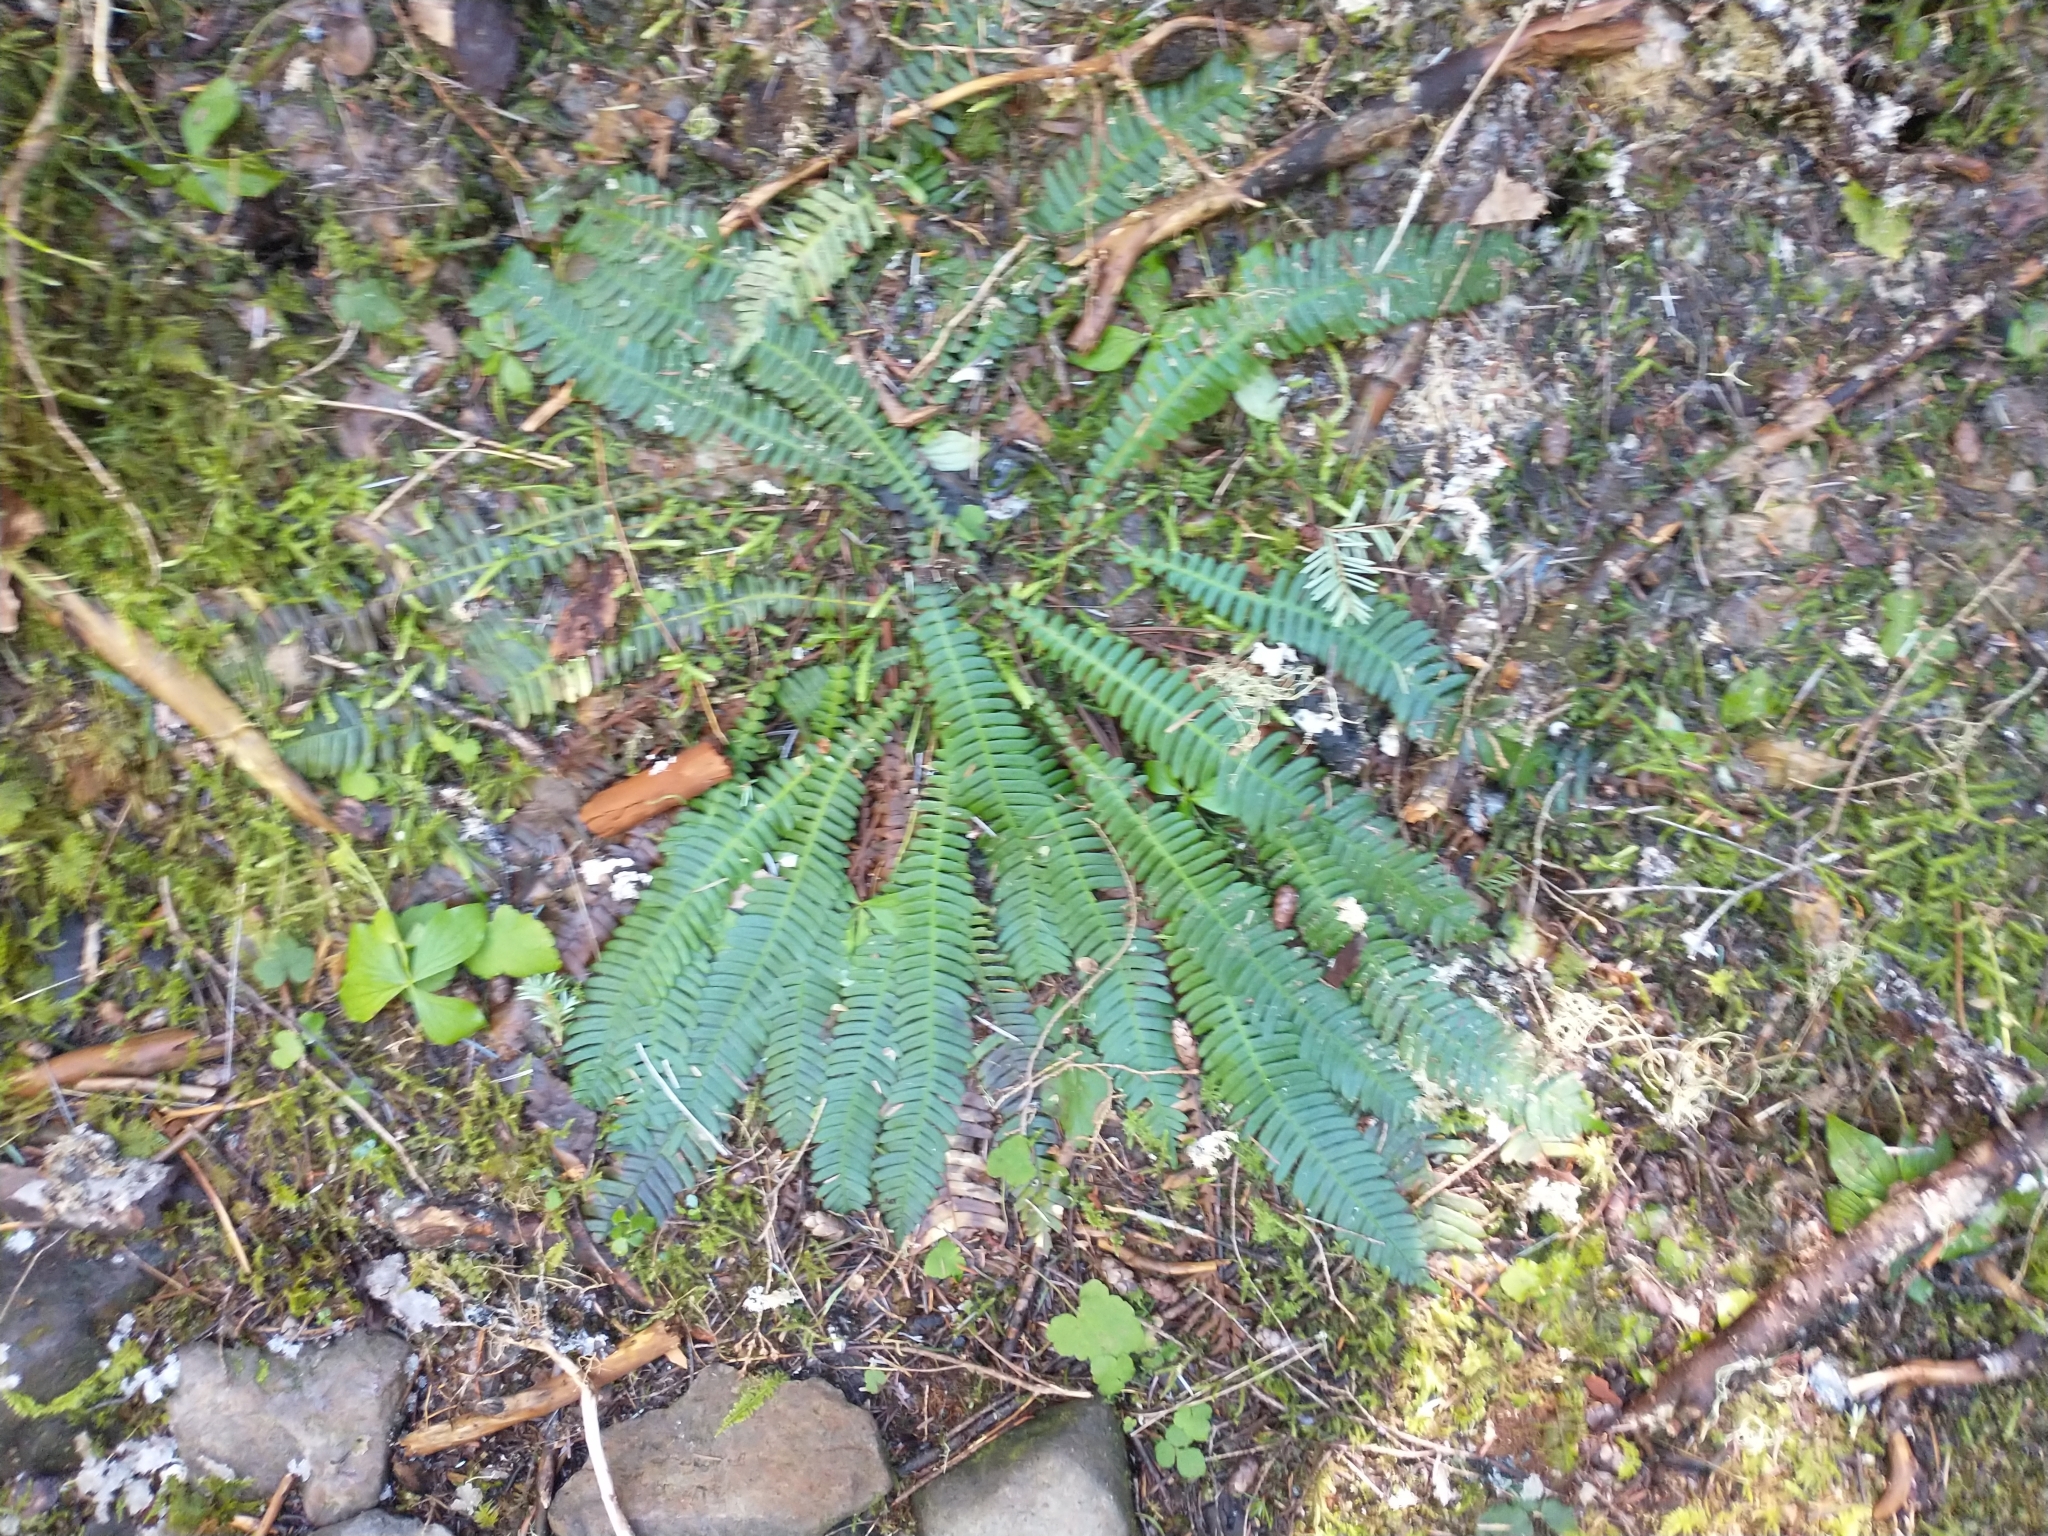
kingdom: Plantae
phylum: Tracheophyta
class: Polypodiopsida
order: Polypodiales
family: Blechnaceae
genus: Struthiopteris
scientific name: Struthiopteris spicant
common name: Deer fern
